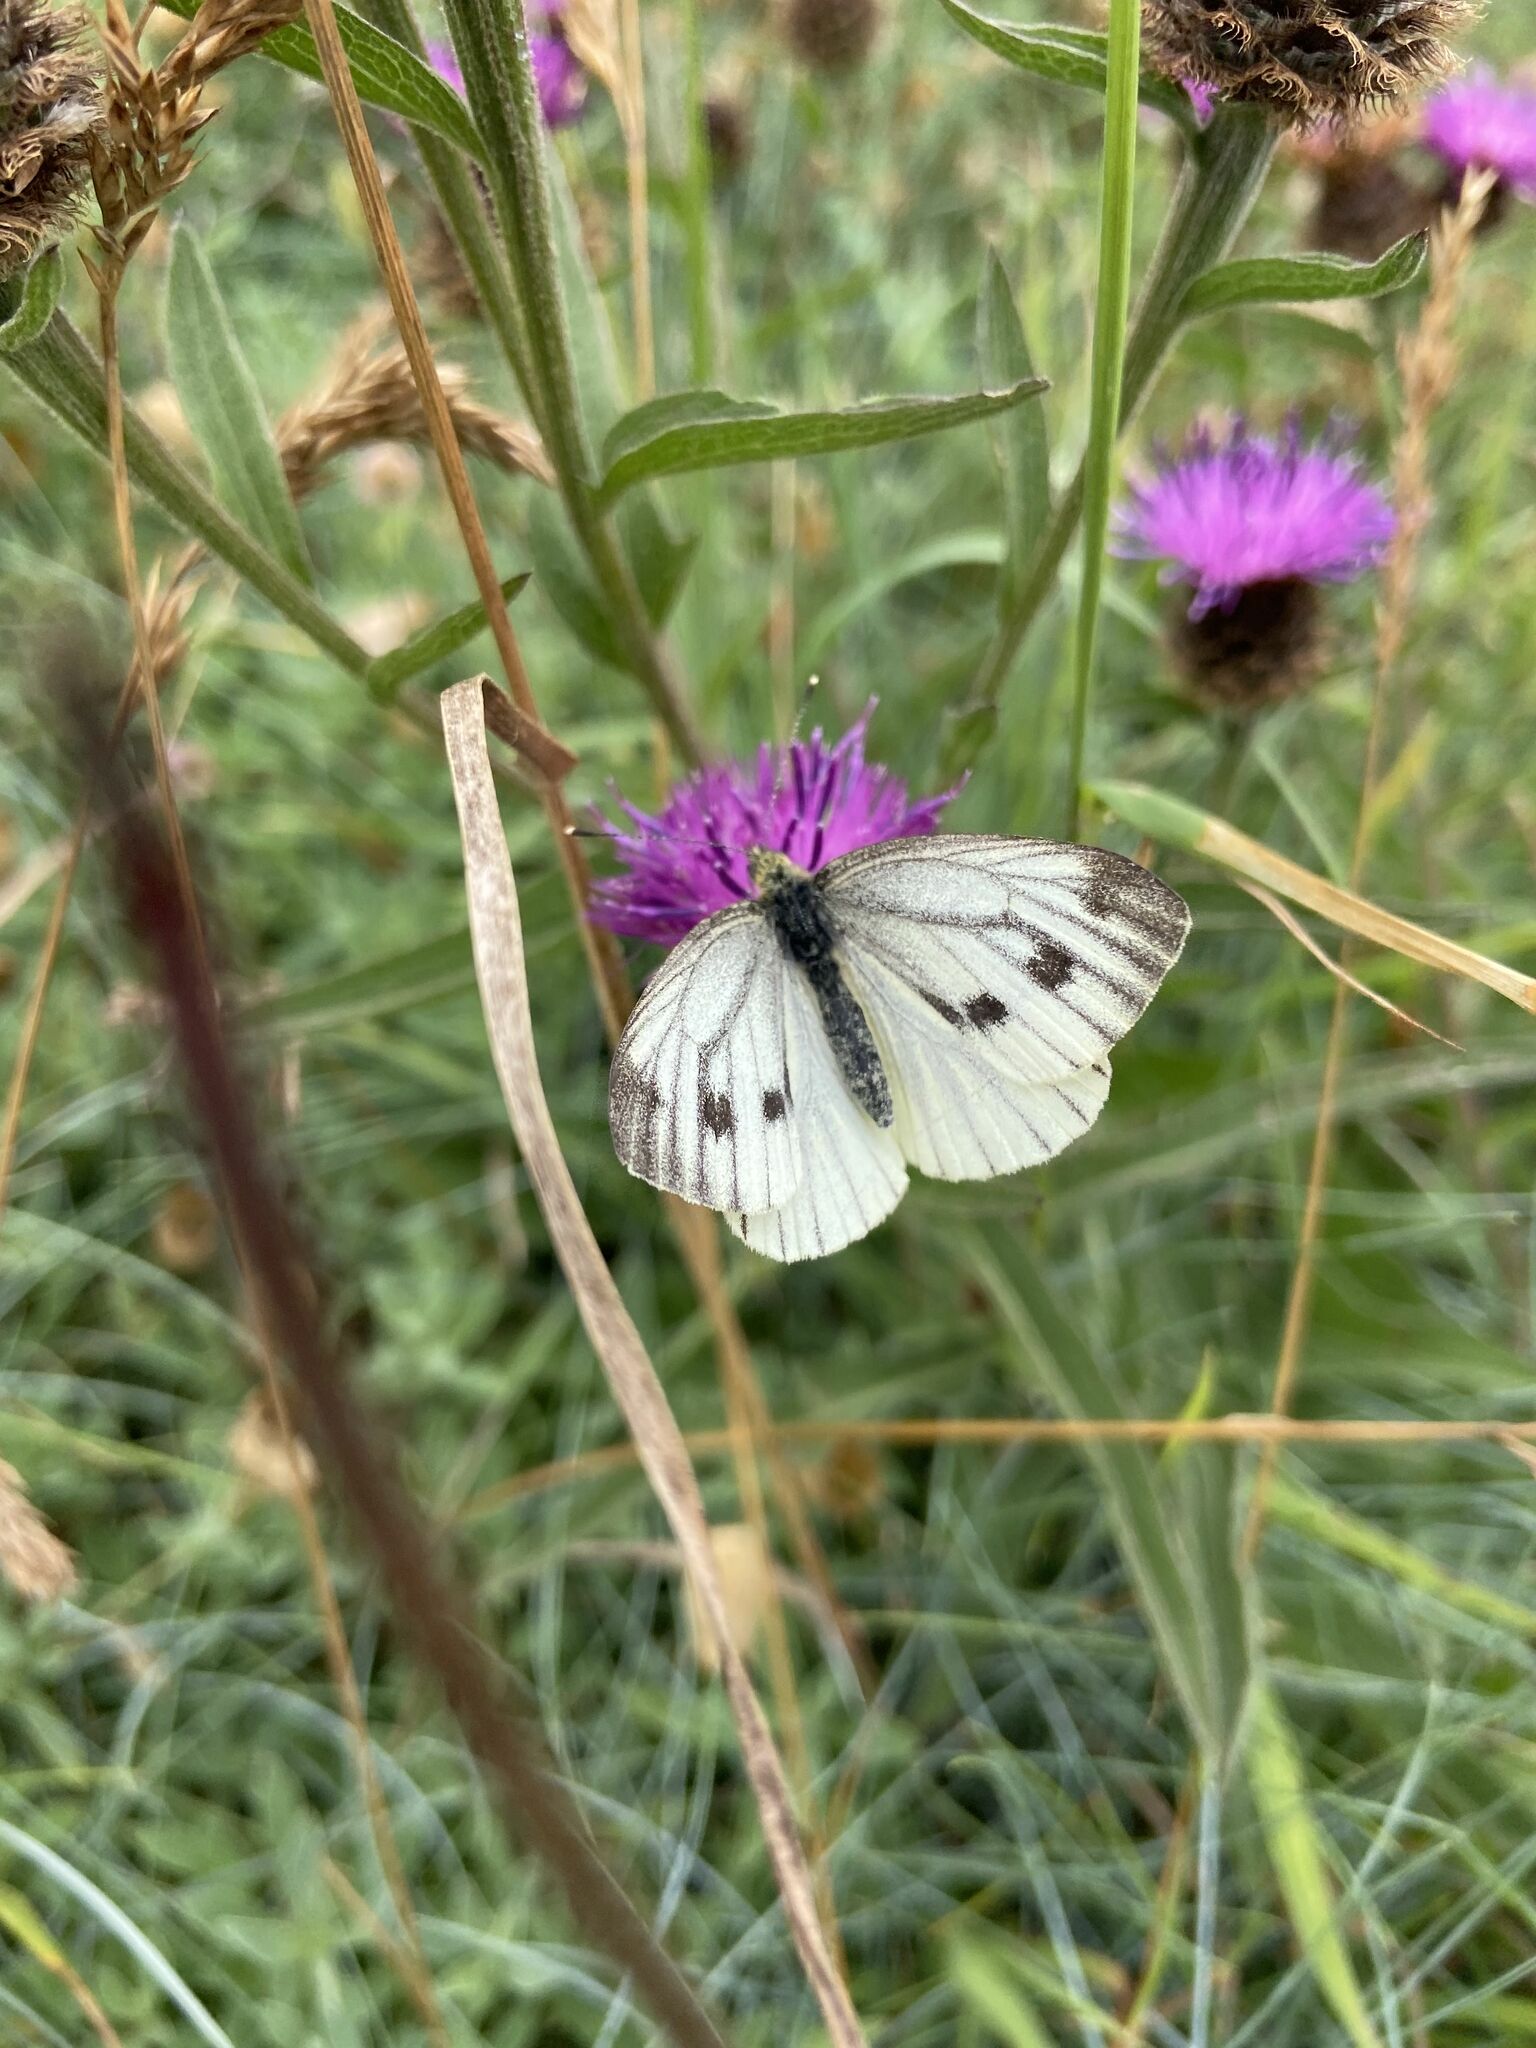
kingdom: Animalia
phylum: Arthropoda
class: Insecta
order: Lepidoptera
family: Pieridae
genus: Pieris
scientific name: Pieris napi
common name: Green-veined white
